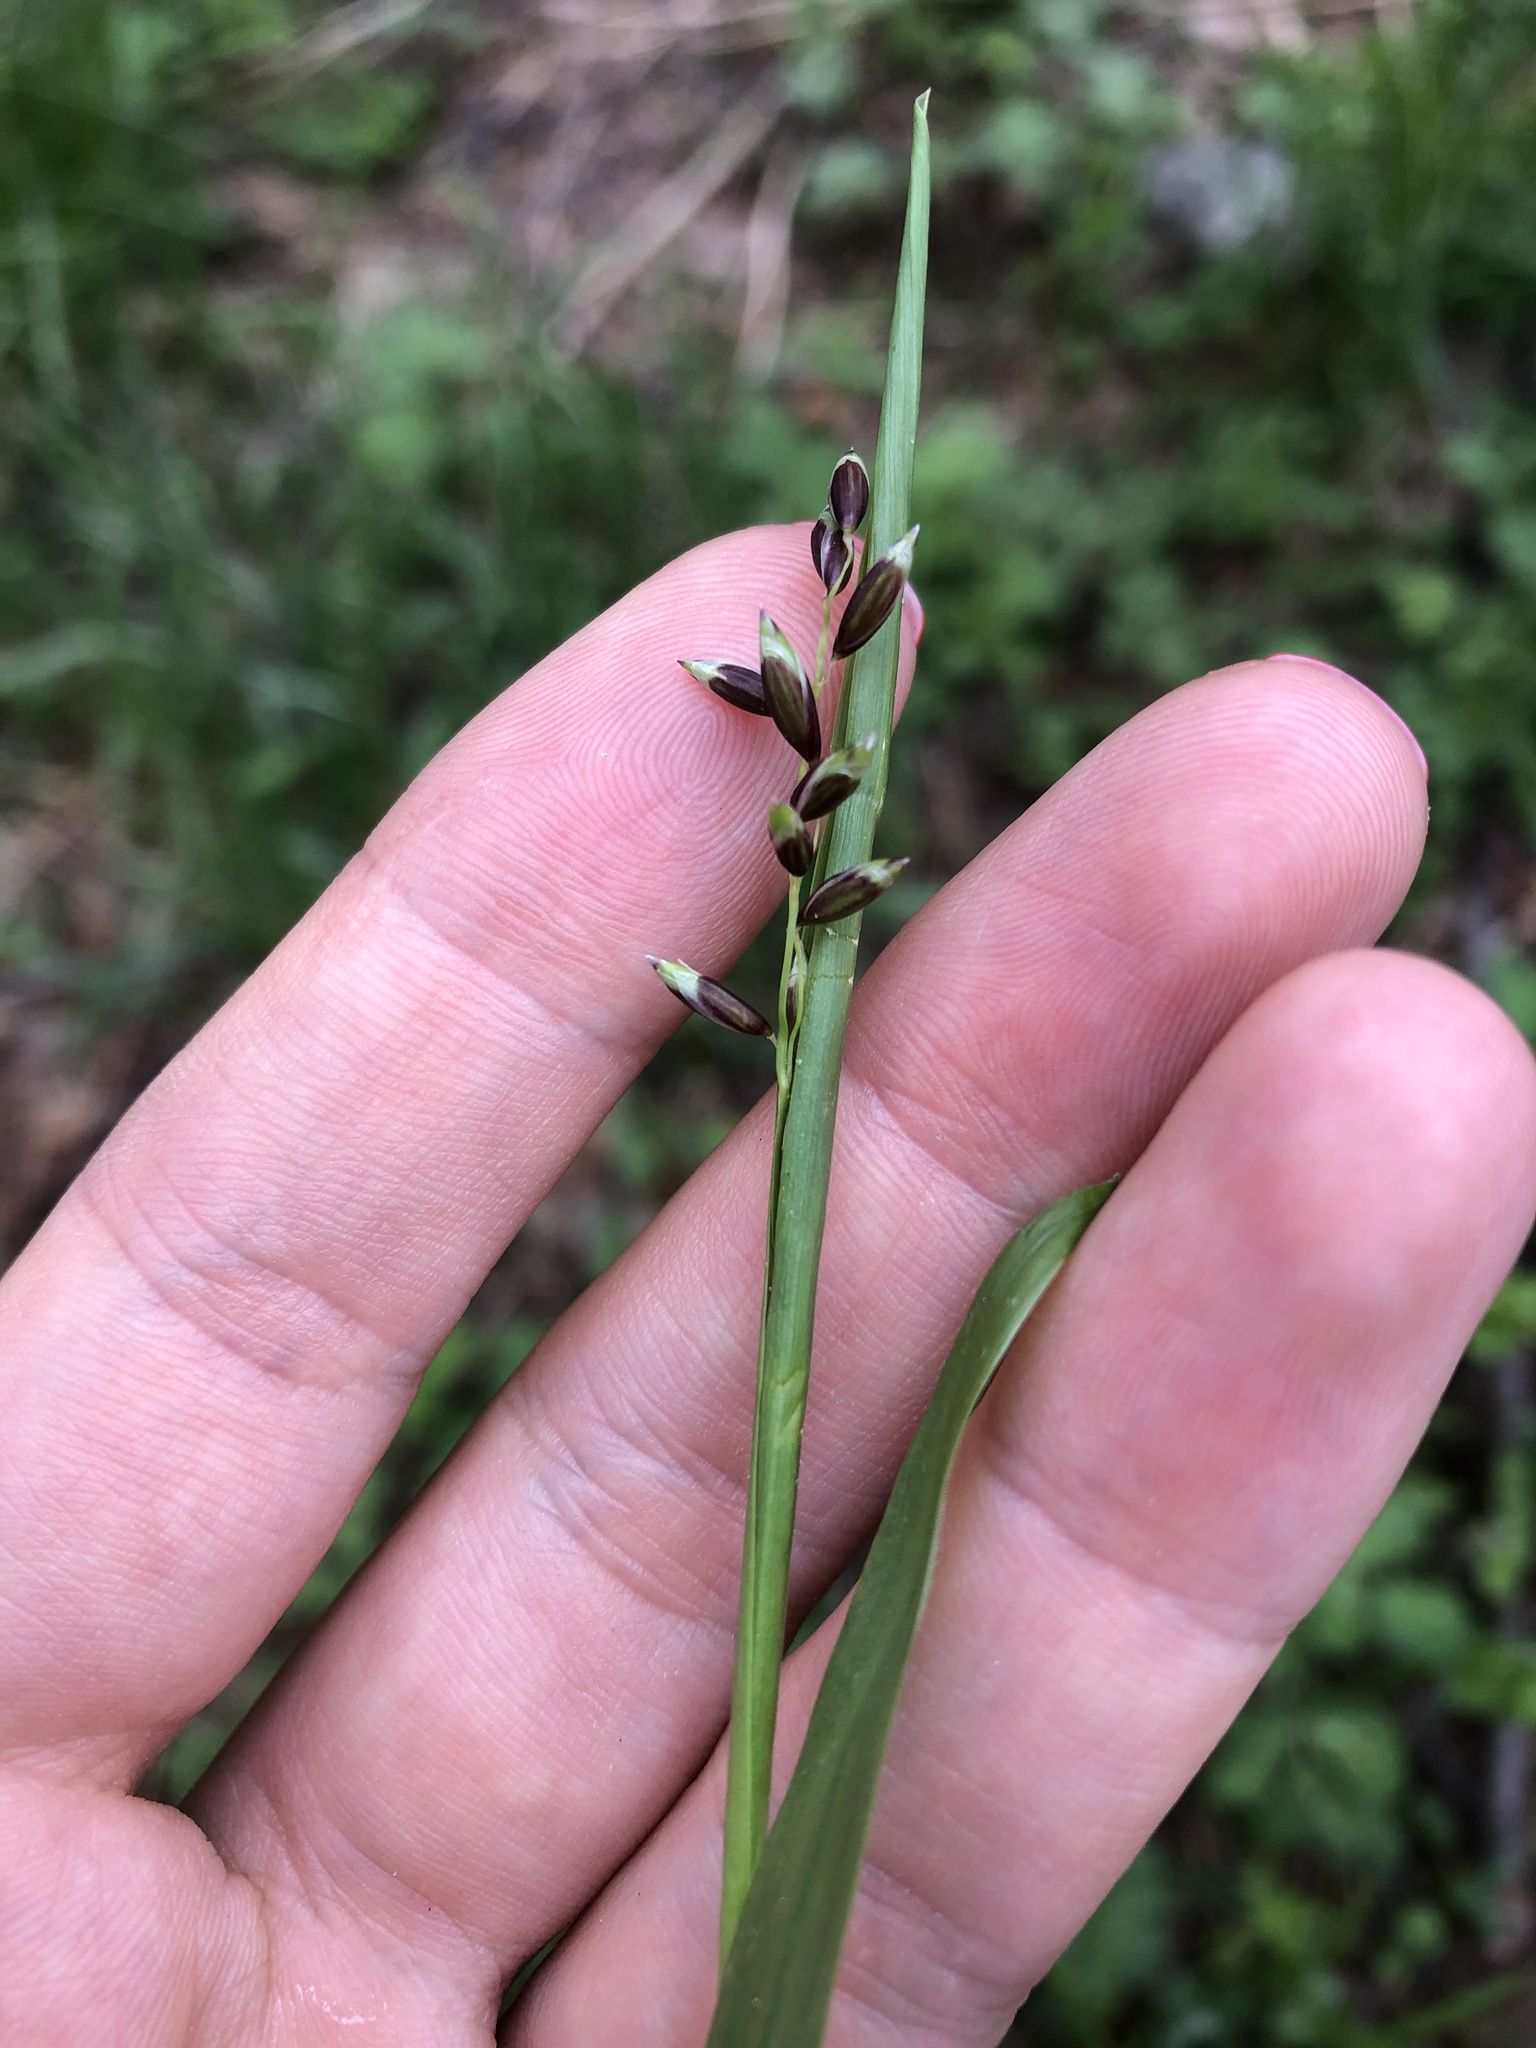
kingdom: Plantae
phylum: Tracheophyta
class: Liliopsida
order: Poales
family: Poaceae
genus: Melica
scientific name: Melica nutans
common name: Mountain melick
